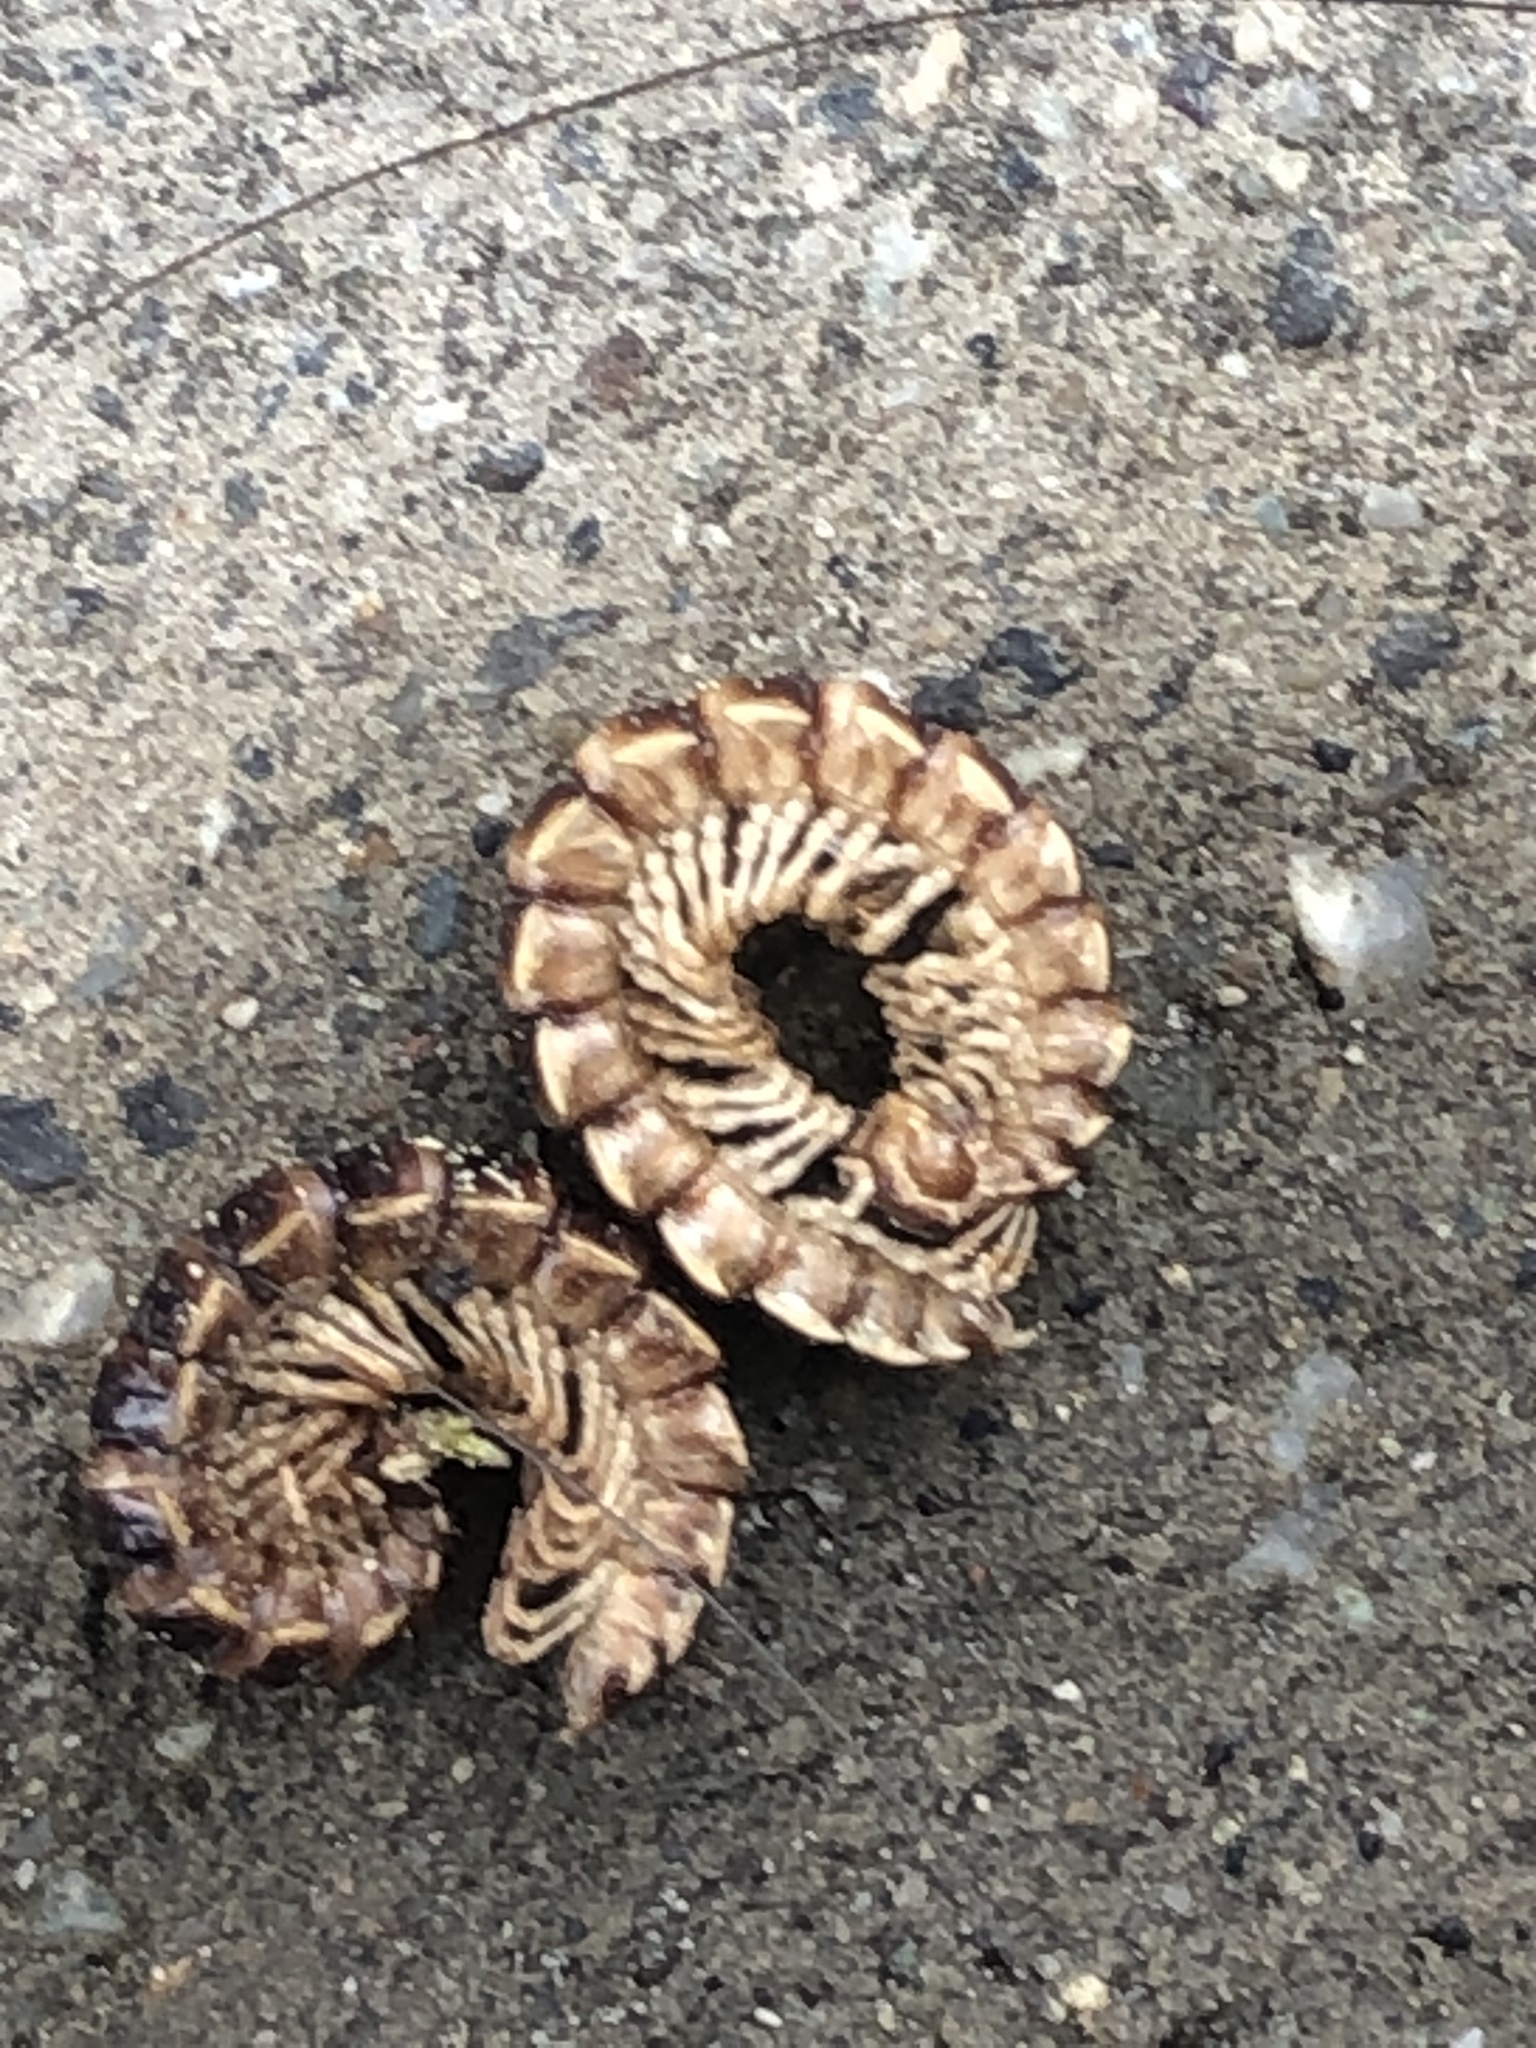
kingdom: Animalia
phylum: Arthropoda
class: Diplopoda
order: Polydesmida
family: Paradoxosomatidae
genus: Oxidus
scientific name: Oxidus gracilis
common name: Greenhouse millipede
